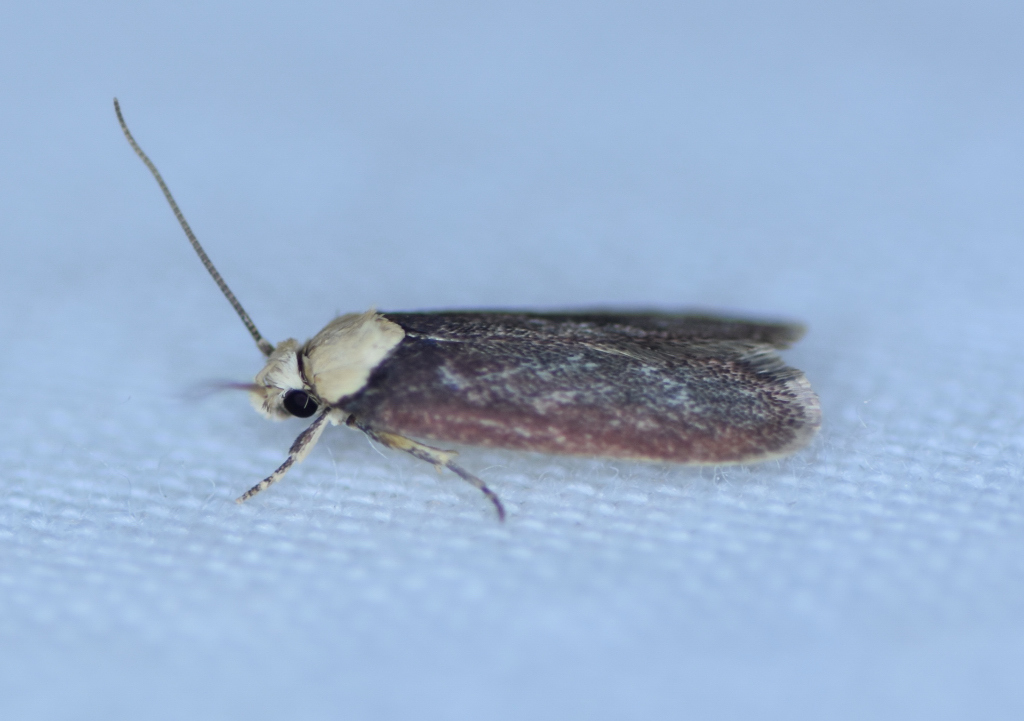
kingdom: Animalia
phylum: Arthropoda
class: Insecta
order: Lepidoptera
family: Depressariidae
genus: Depressaria
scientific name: Depressaria depressana
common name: Lost flat-body
